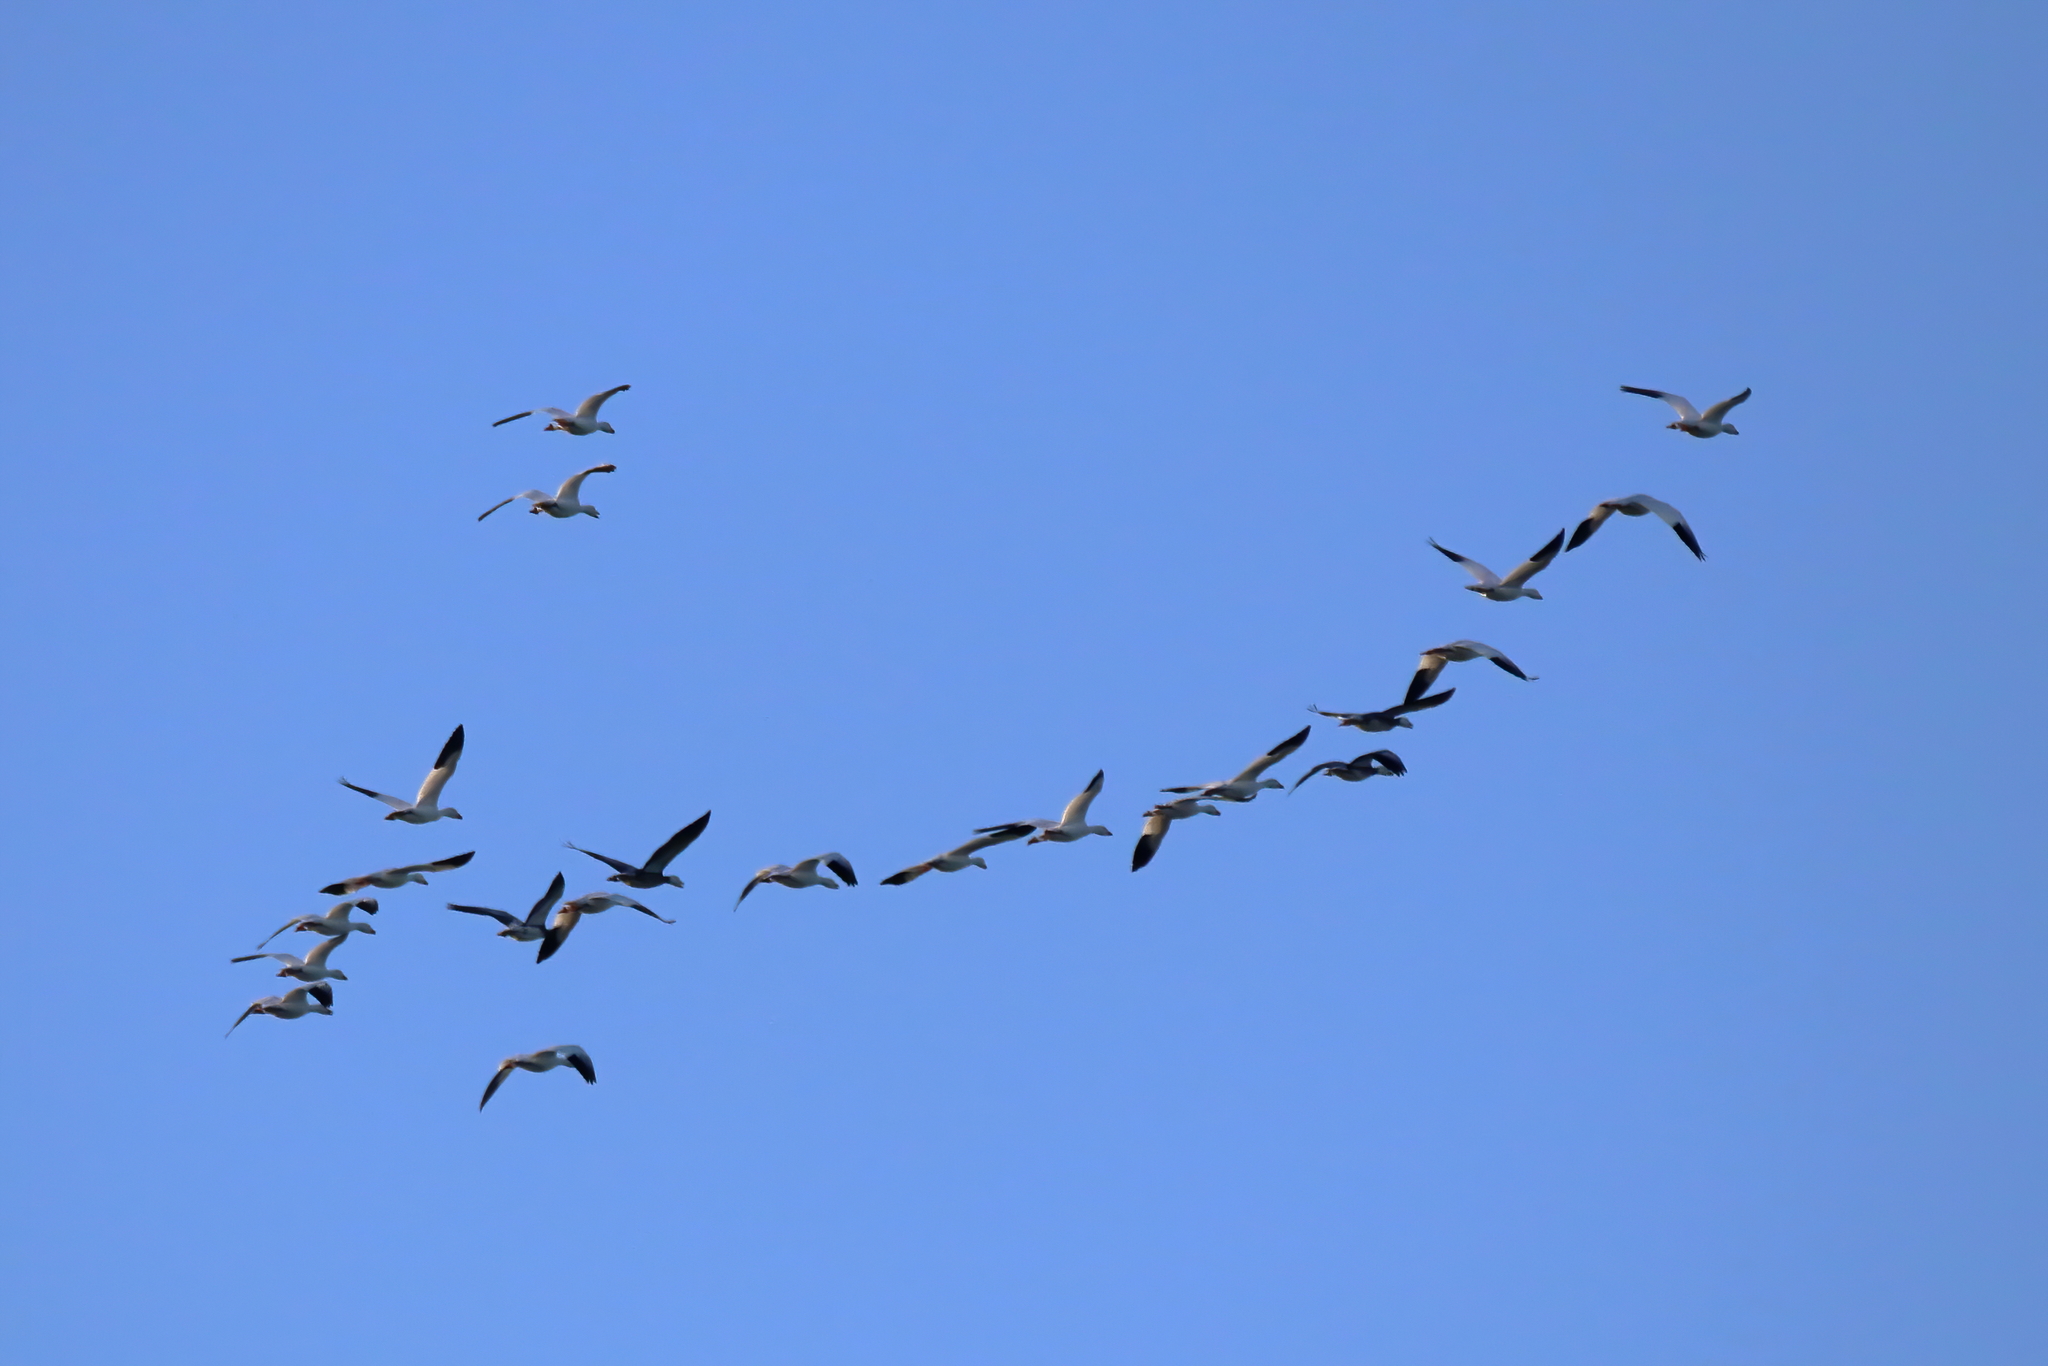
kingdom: Animalia
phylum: Chordata
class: Aves
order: Anseriformes
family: Anatidae
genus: Anser
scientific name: Anser caerulescens
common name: Snow goose
